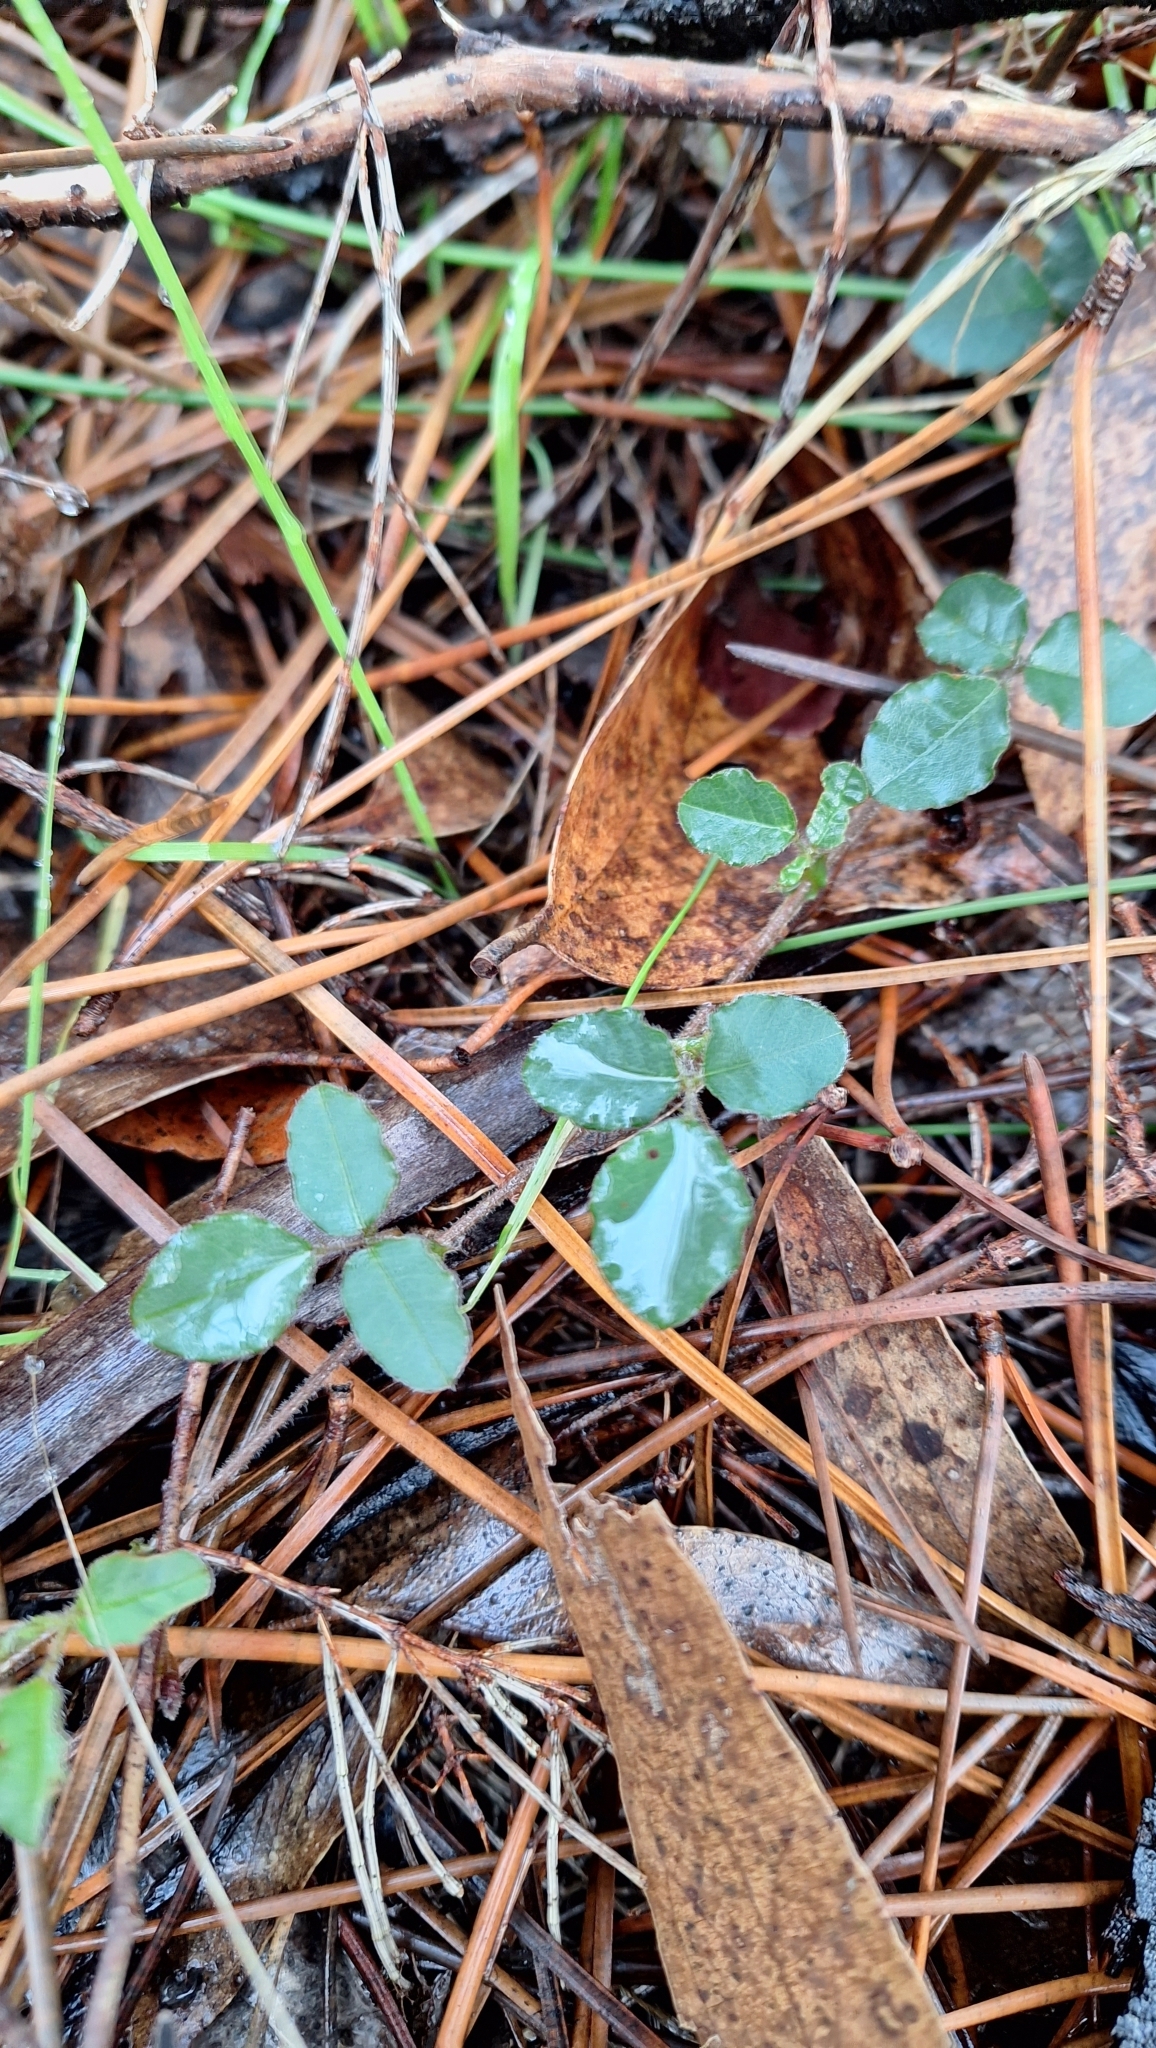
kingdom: Plantae
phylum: Tracheophyta
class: Magnoliopsida
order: Fabales
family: Fabaceae
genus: Kennedia
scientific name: Kennedia prostrata
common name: Running-postman
